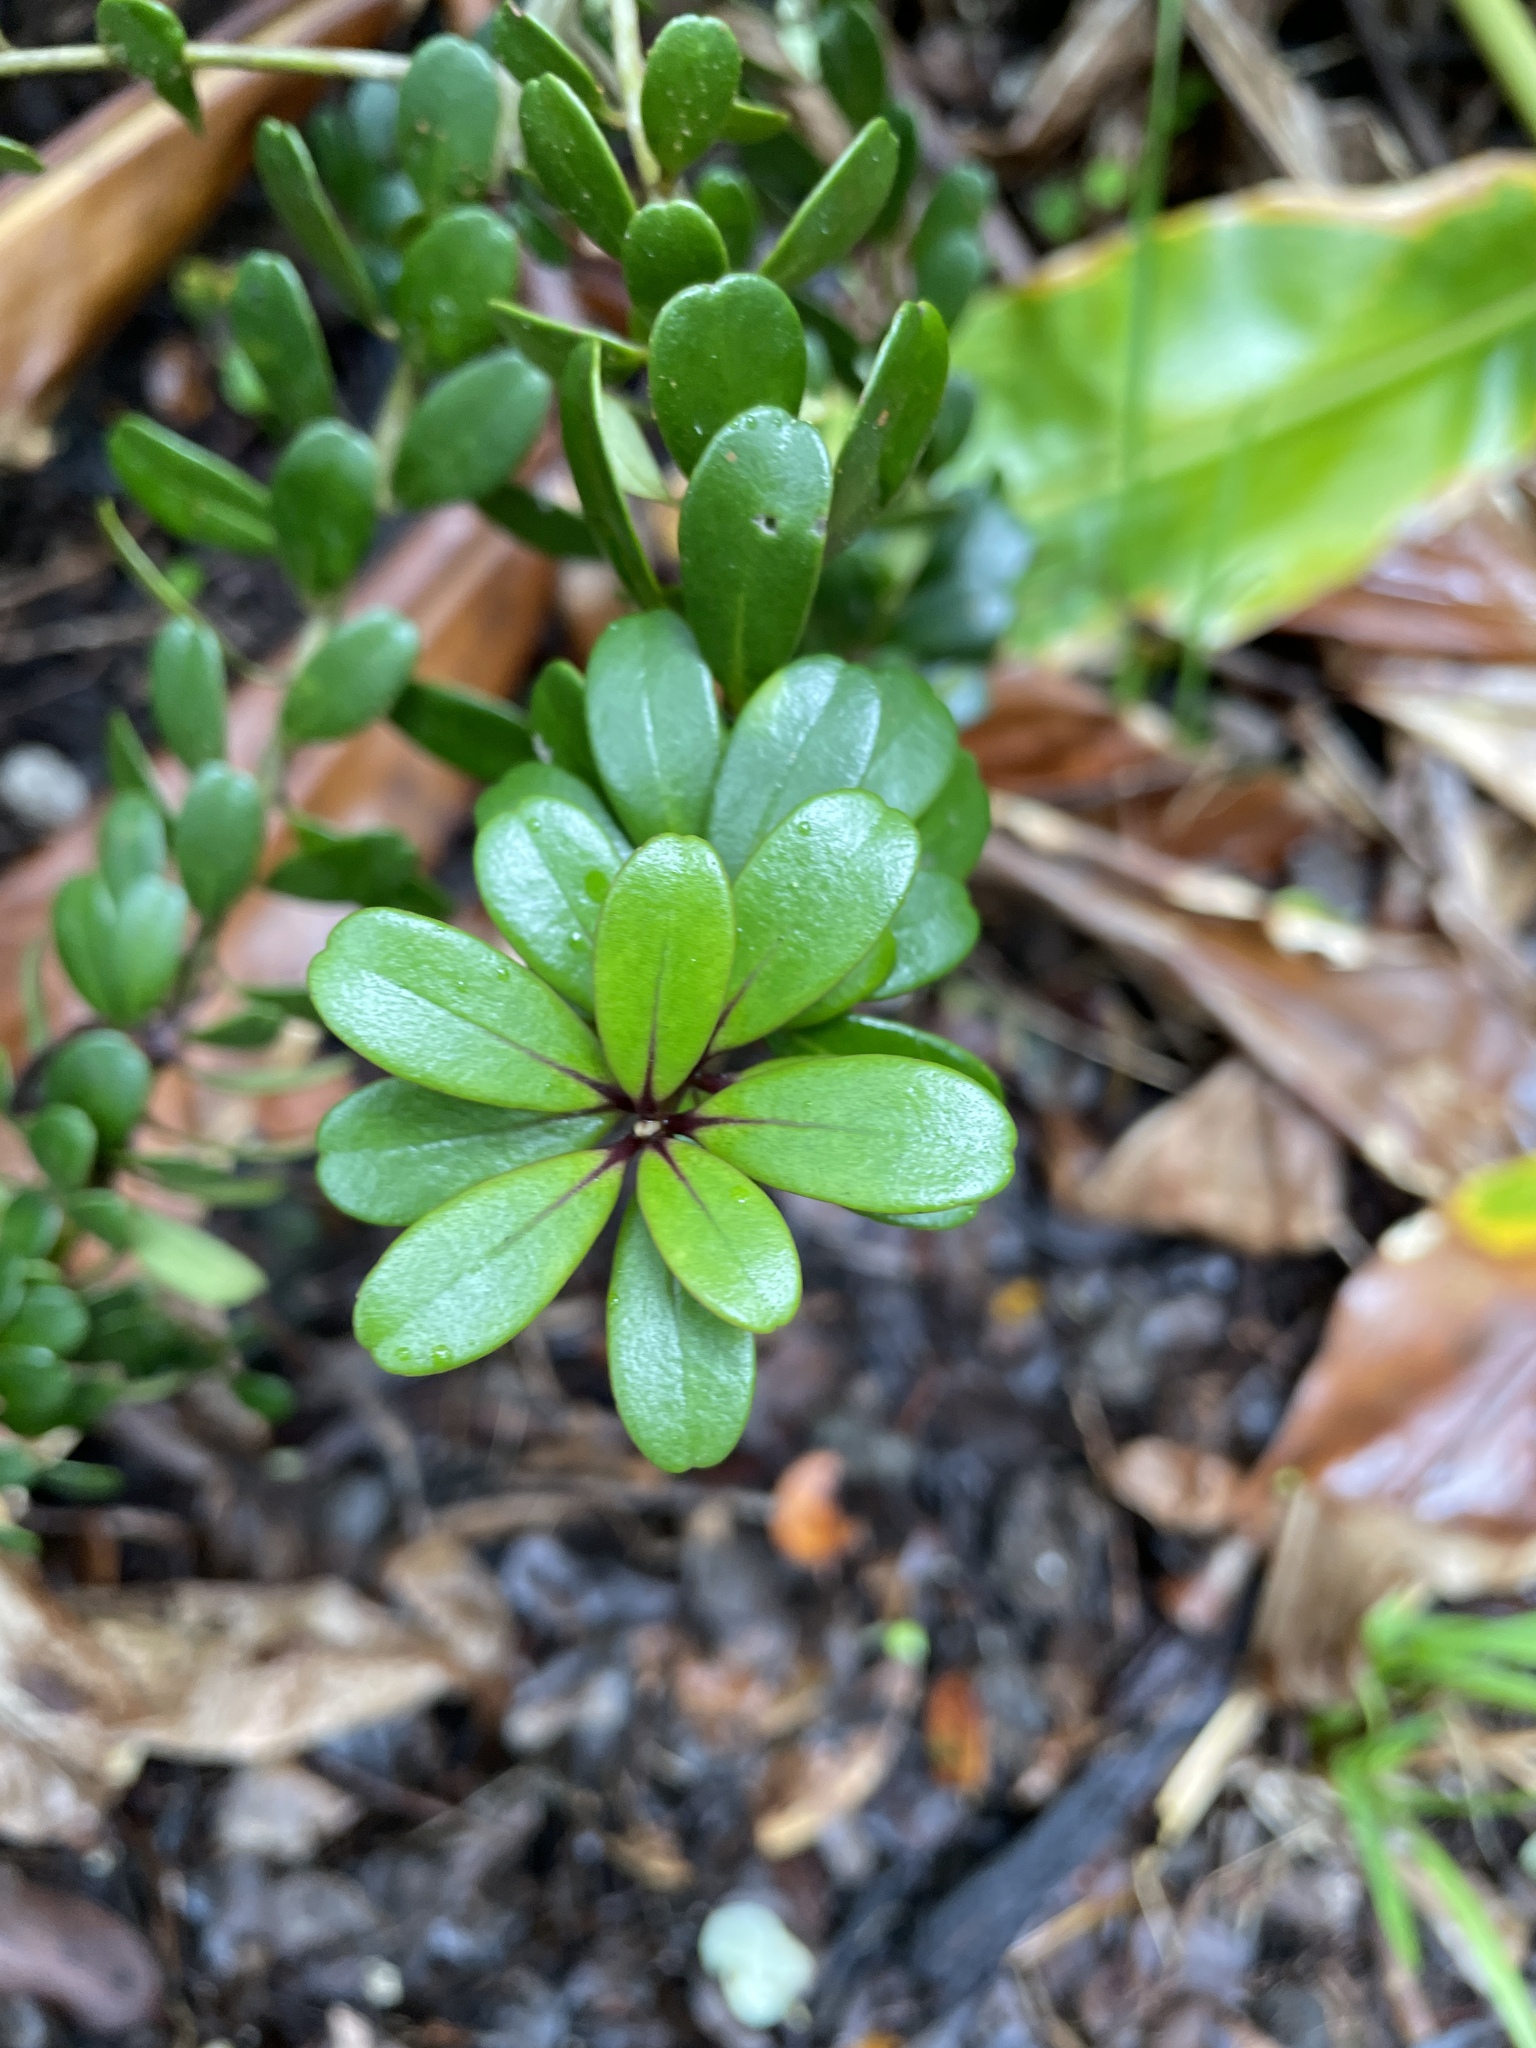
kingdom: Plantae
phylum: Tracheophyta
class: Magnoliopsida
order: Ericales
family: Primulaceae
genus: Myrsine
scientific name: Myrsine sandwicensis
